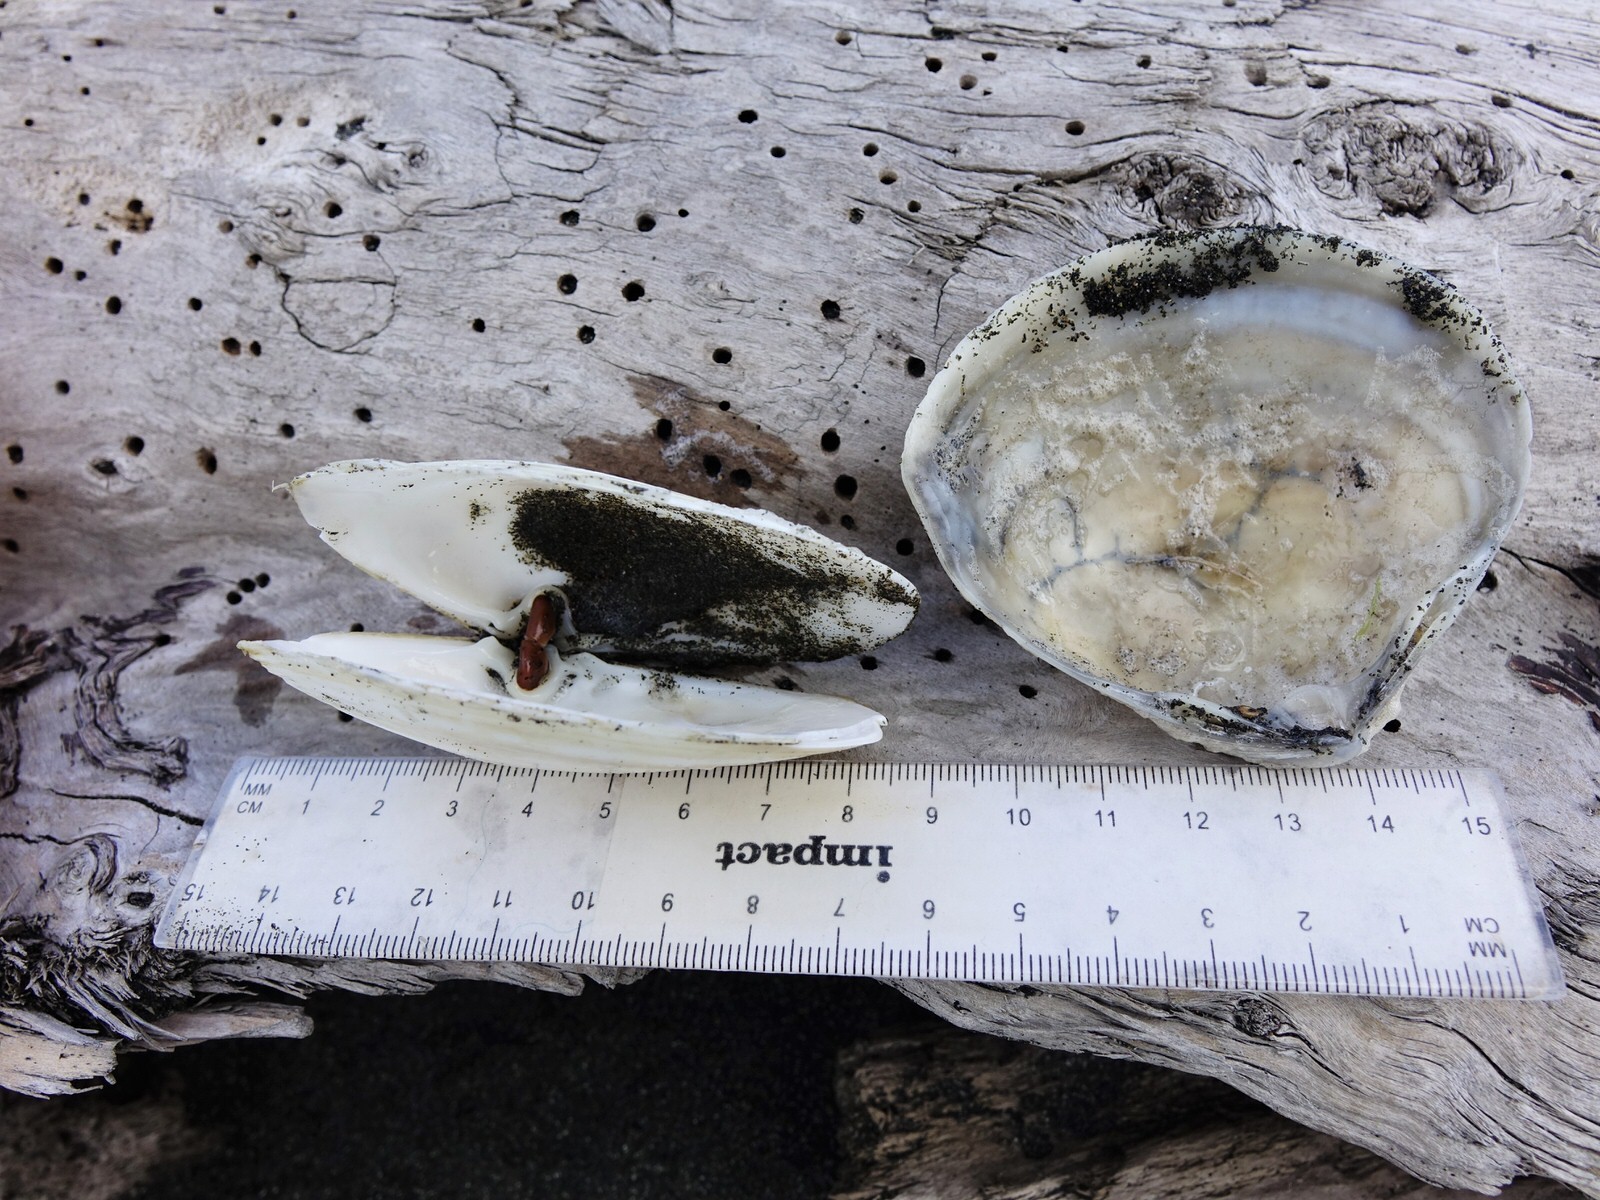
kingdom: Animalia
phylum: Mollusca
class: Bivalvia
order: Venerida
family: Mesodesmatidae
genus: Paphies
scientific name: Paphies ventricosa
